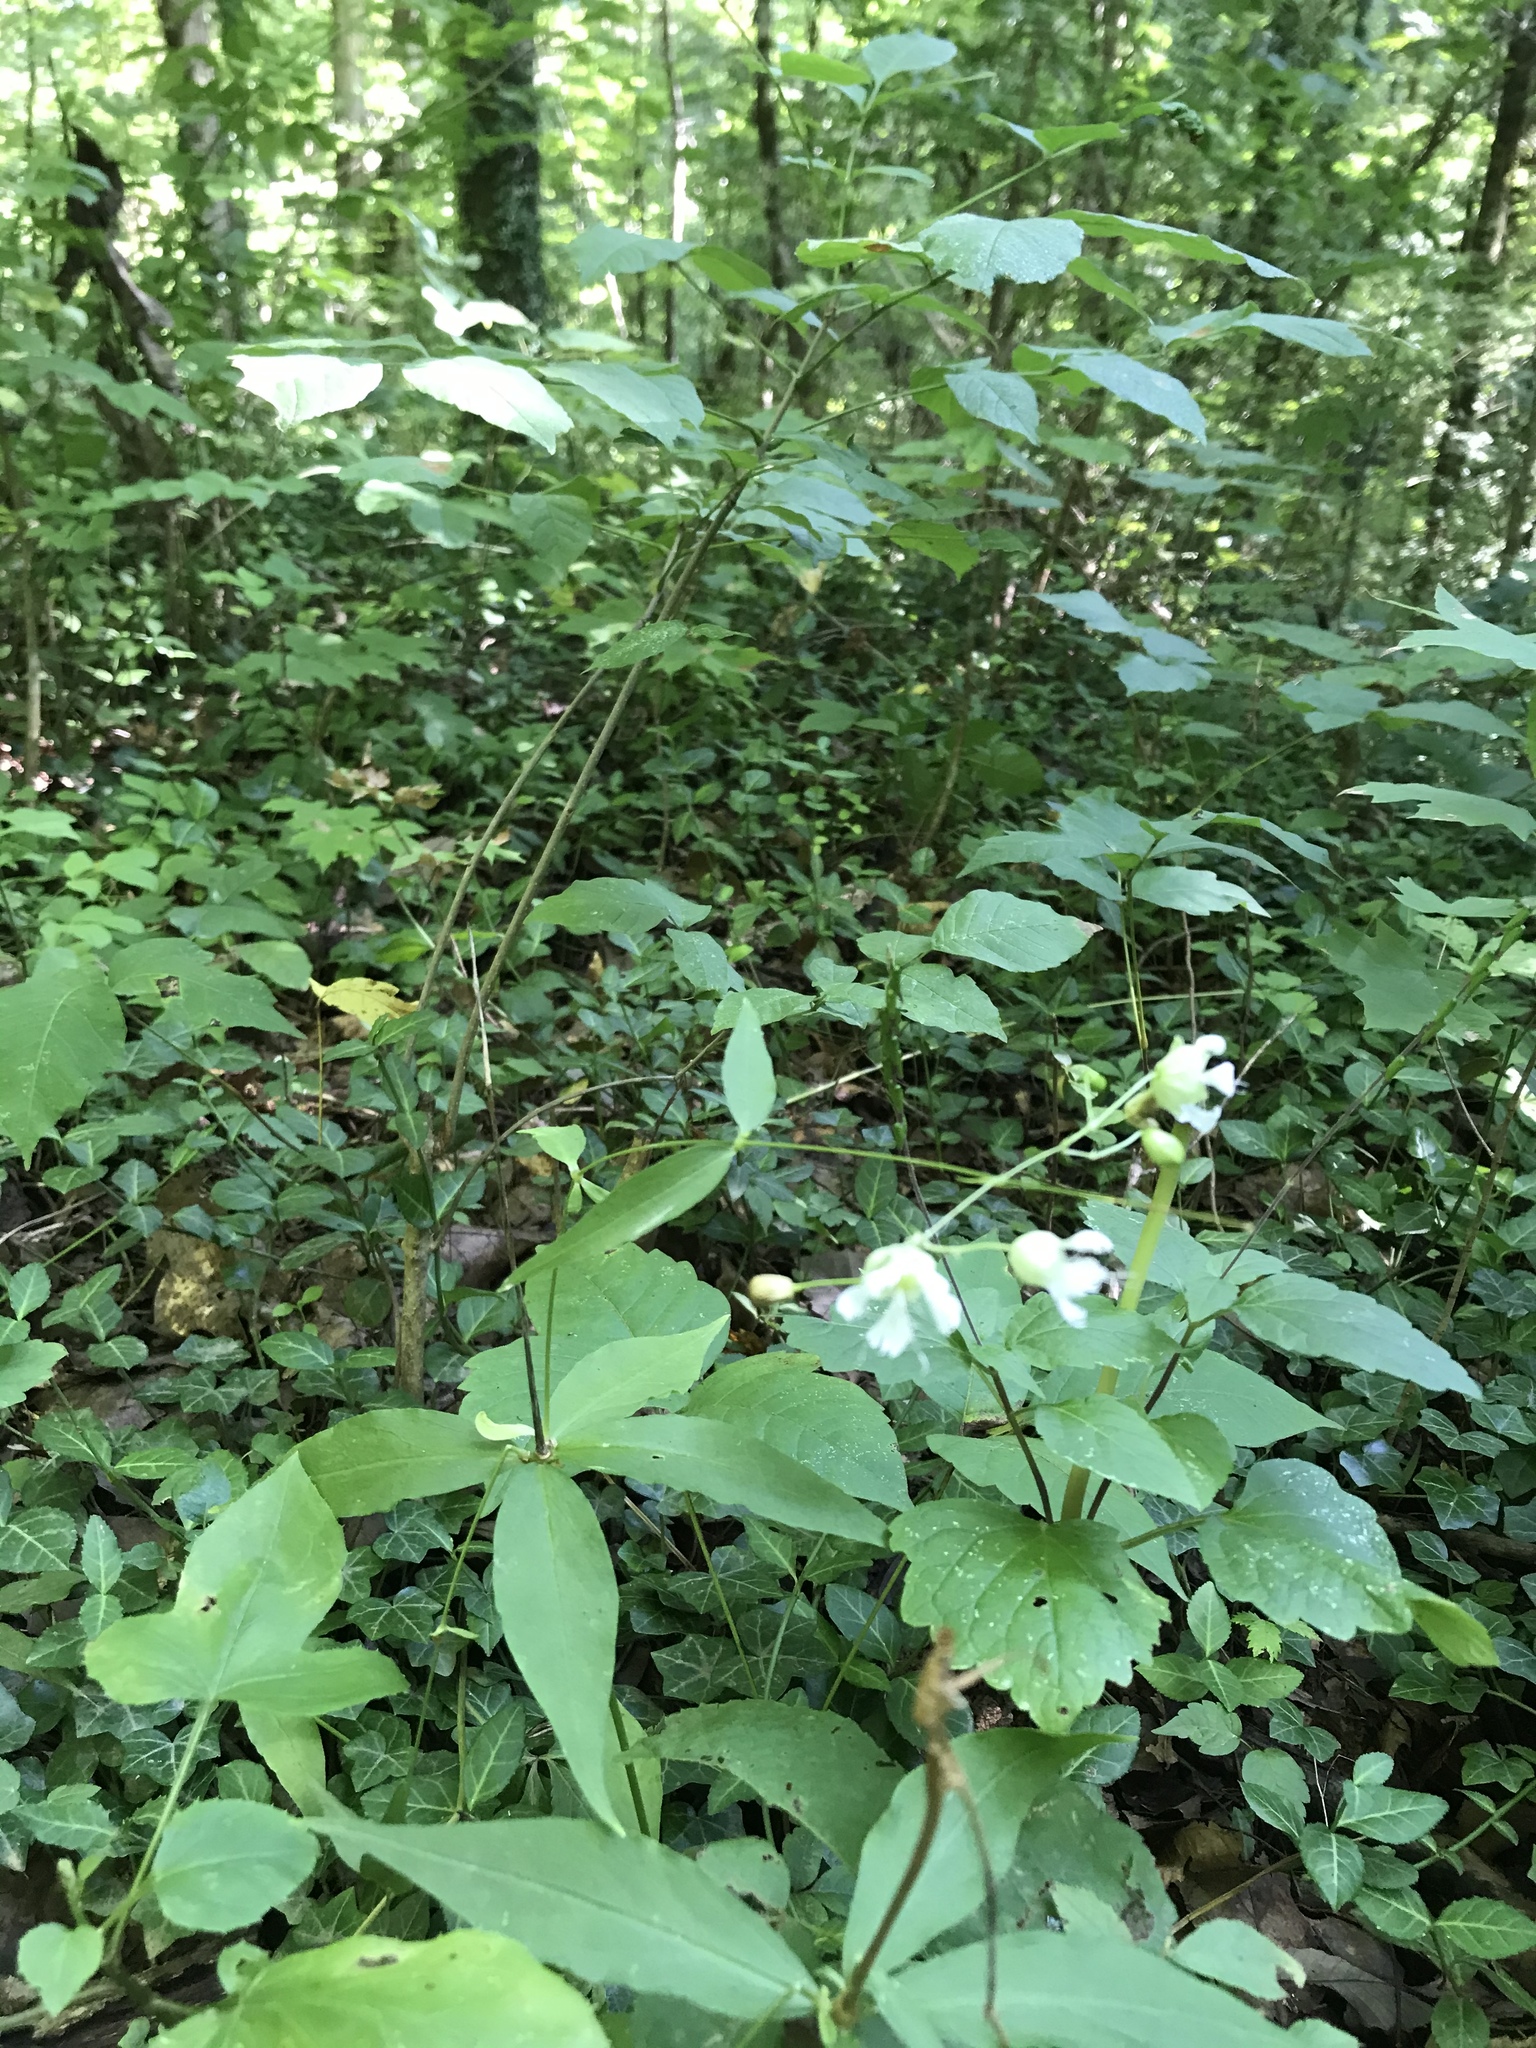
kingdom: Plantae
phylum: Tracheophyta
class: Magnoliopsida
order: Caryophyllales
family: Caryophyllaceae
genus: Silene
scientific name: Silene stellata
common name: Starry campion
